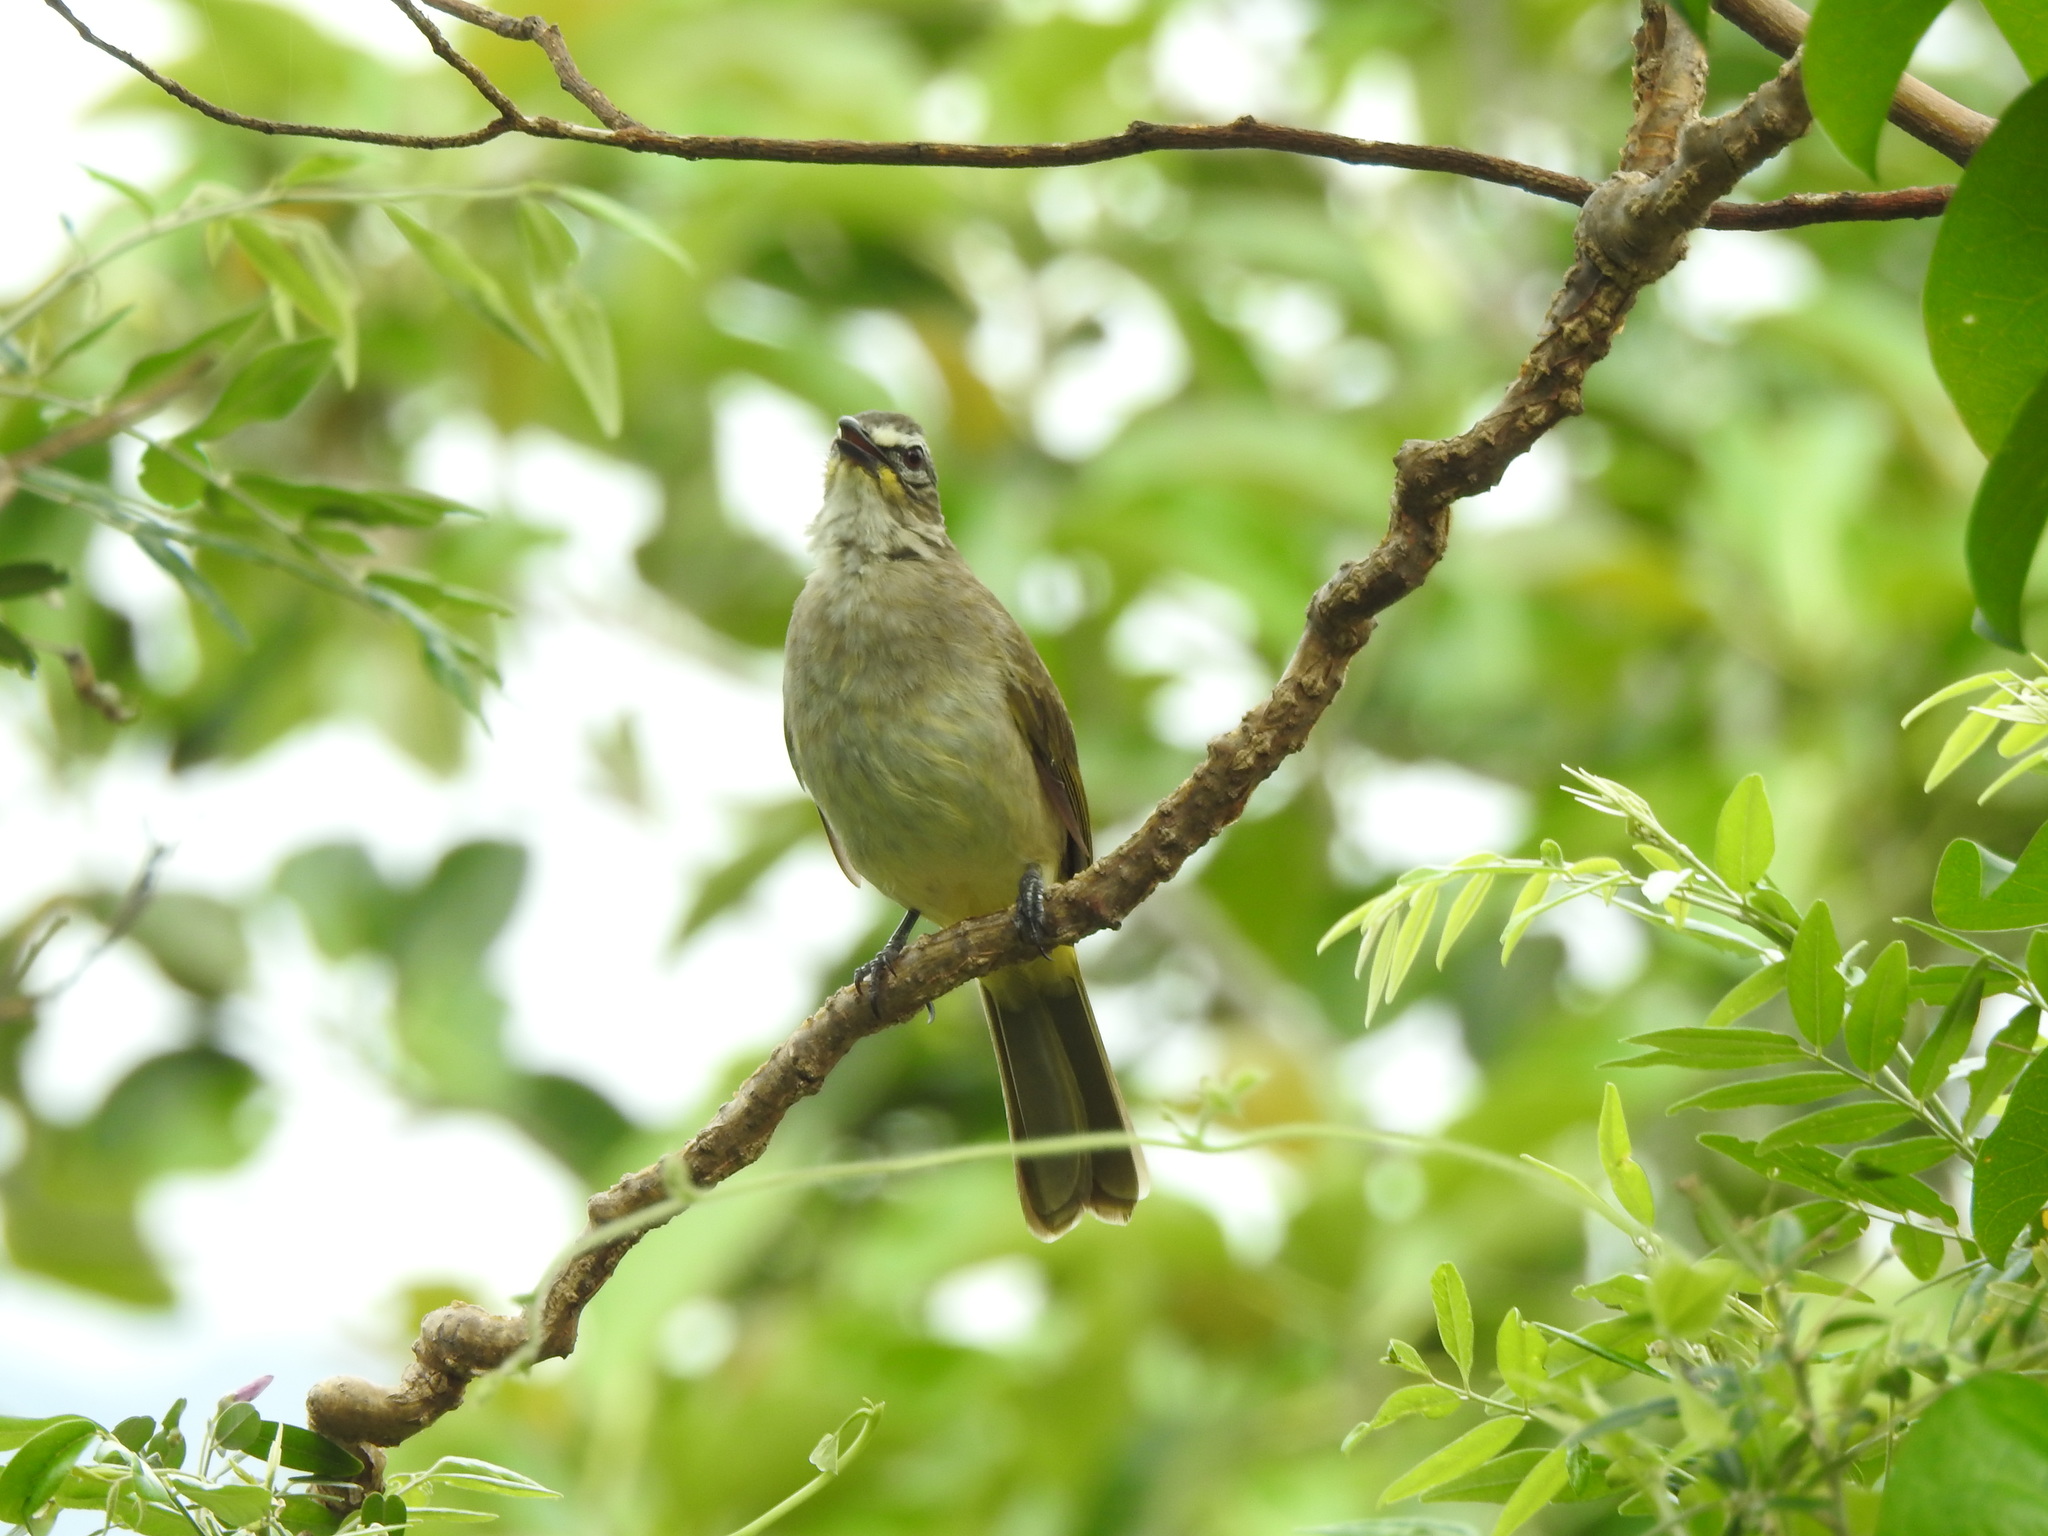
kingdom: Animalia
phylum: Chordata
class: Aves
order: Passeriformes
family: Pycnonotidae
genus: Pycnonotus
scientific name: Pycnonotus luteolus
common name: White-browed bulbul
